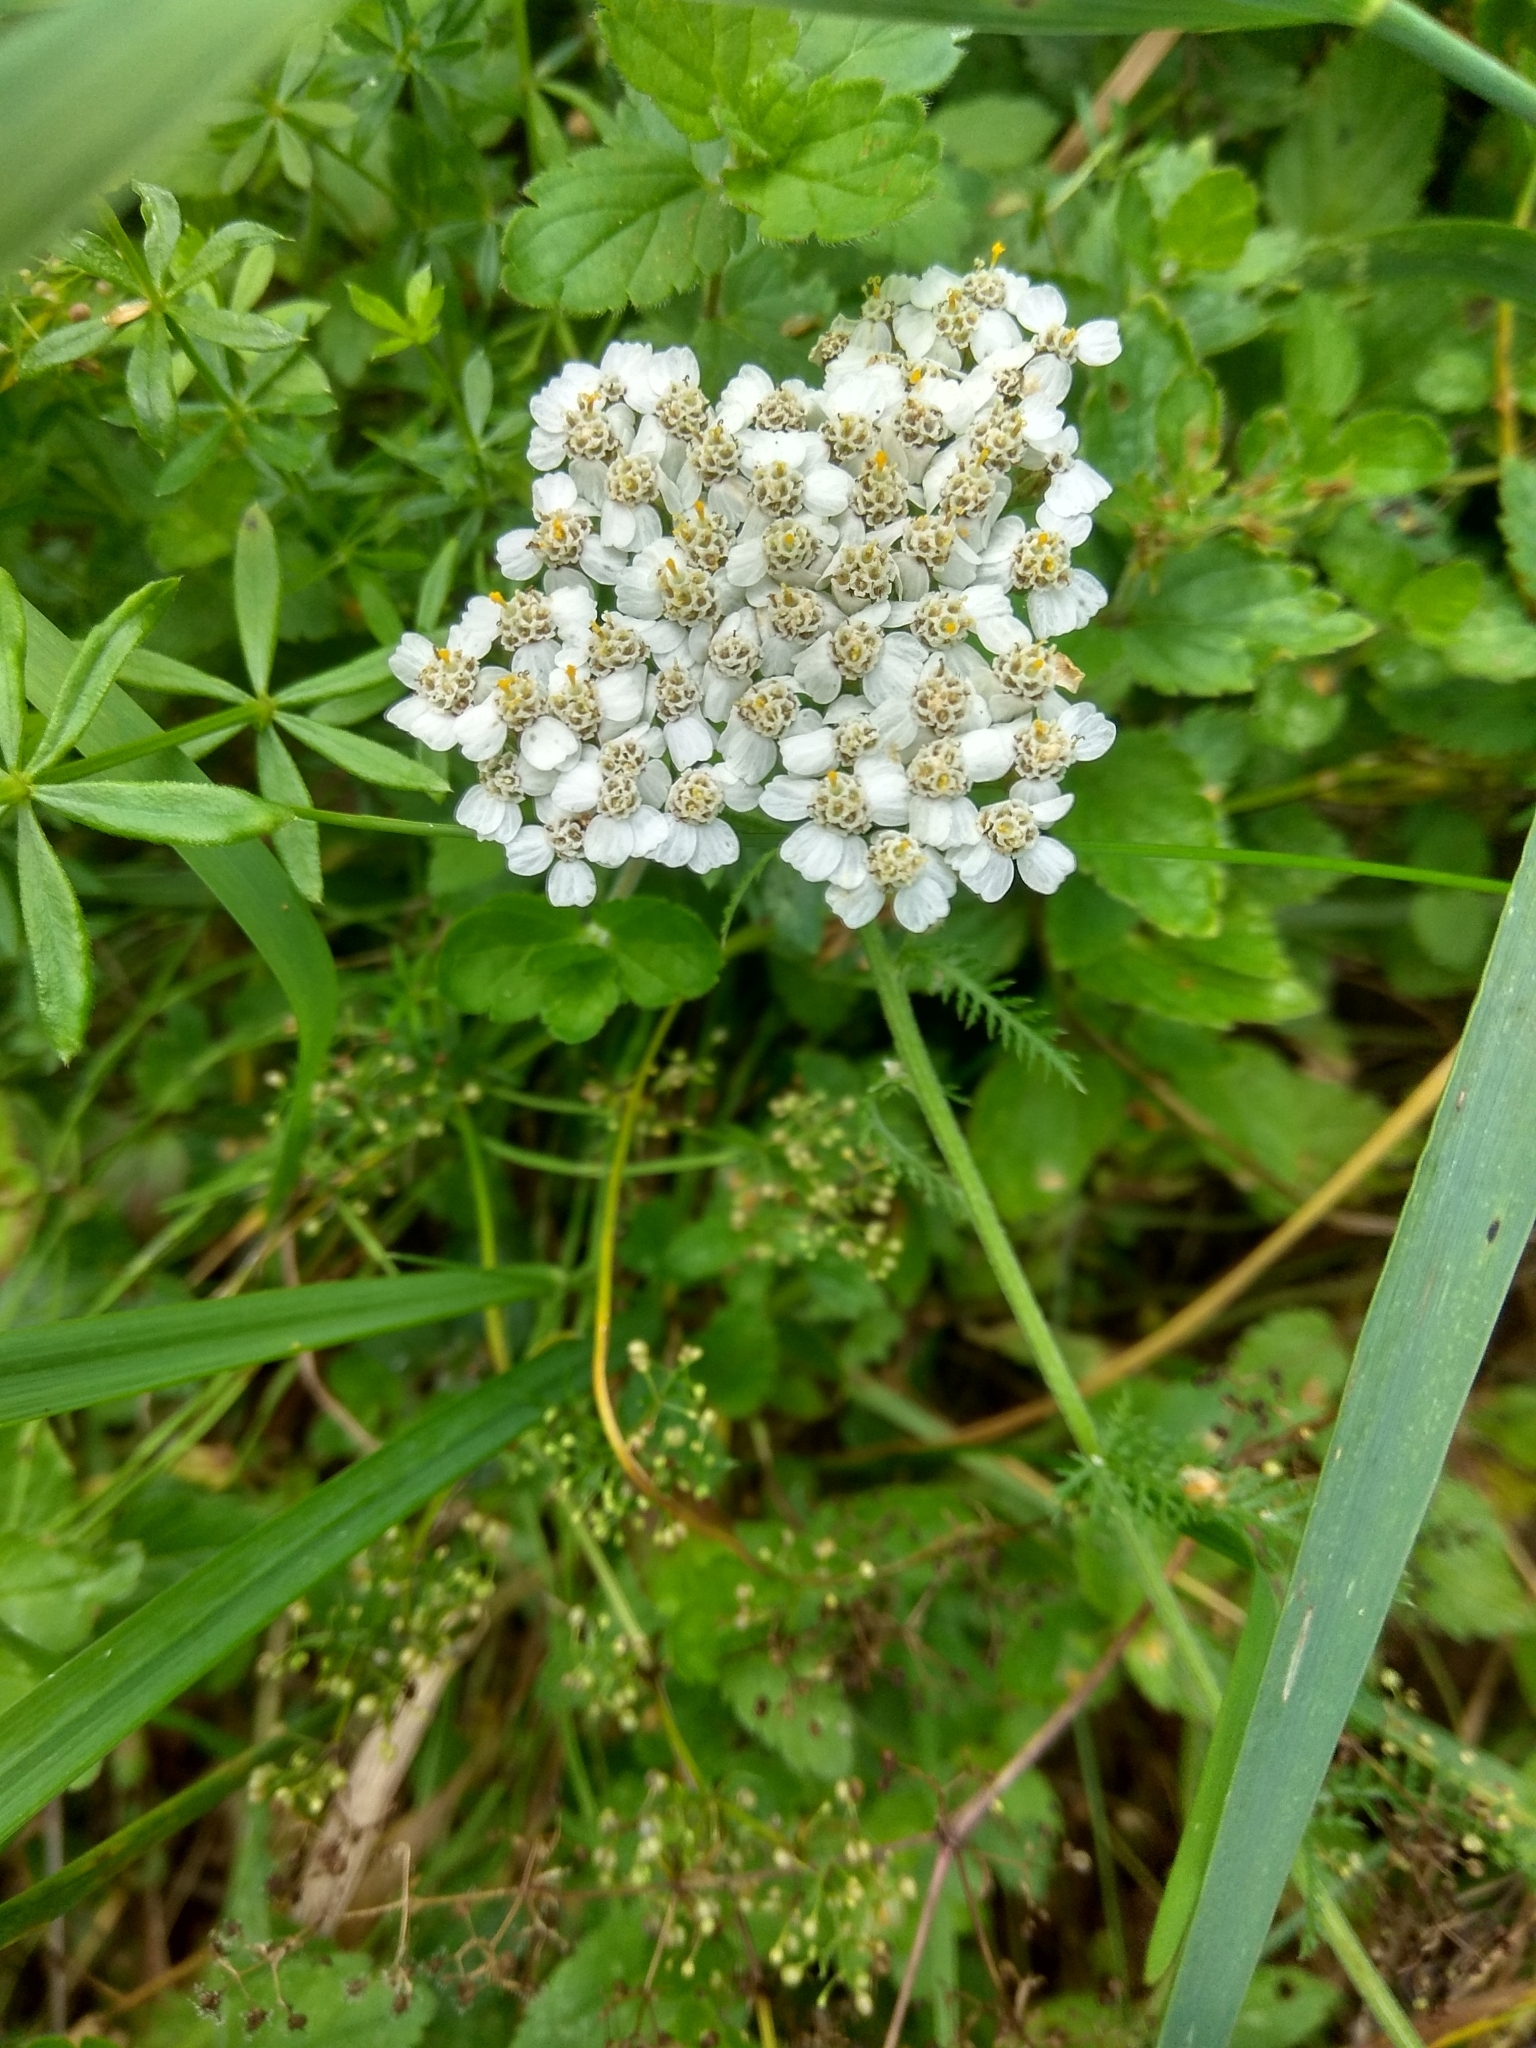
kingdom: Plantae
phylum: Tracheophyta
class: Magnoliopsida
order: Asterales
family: Asteraceae
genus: Achillea
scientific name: Achillea millefolium
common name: Yarrow
